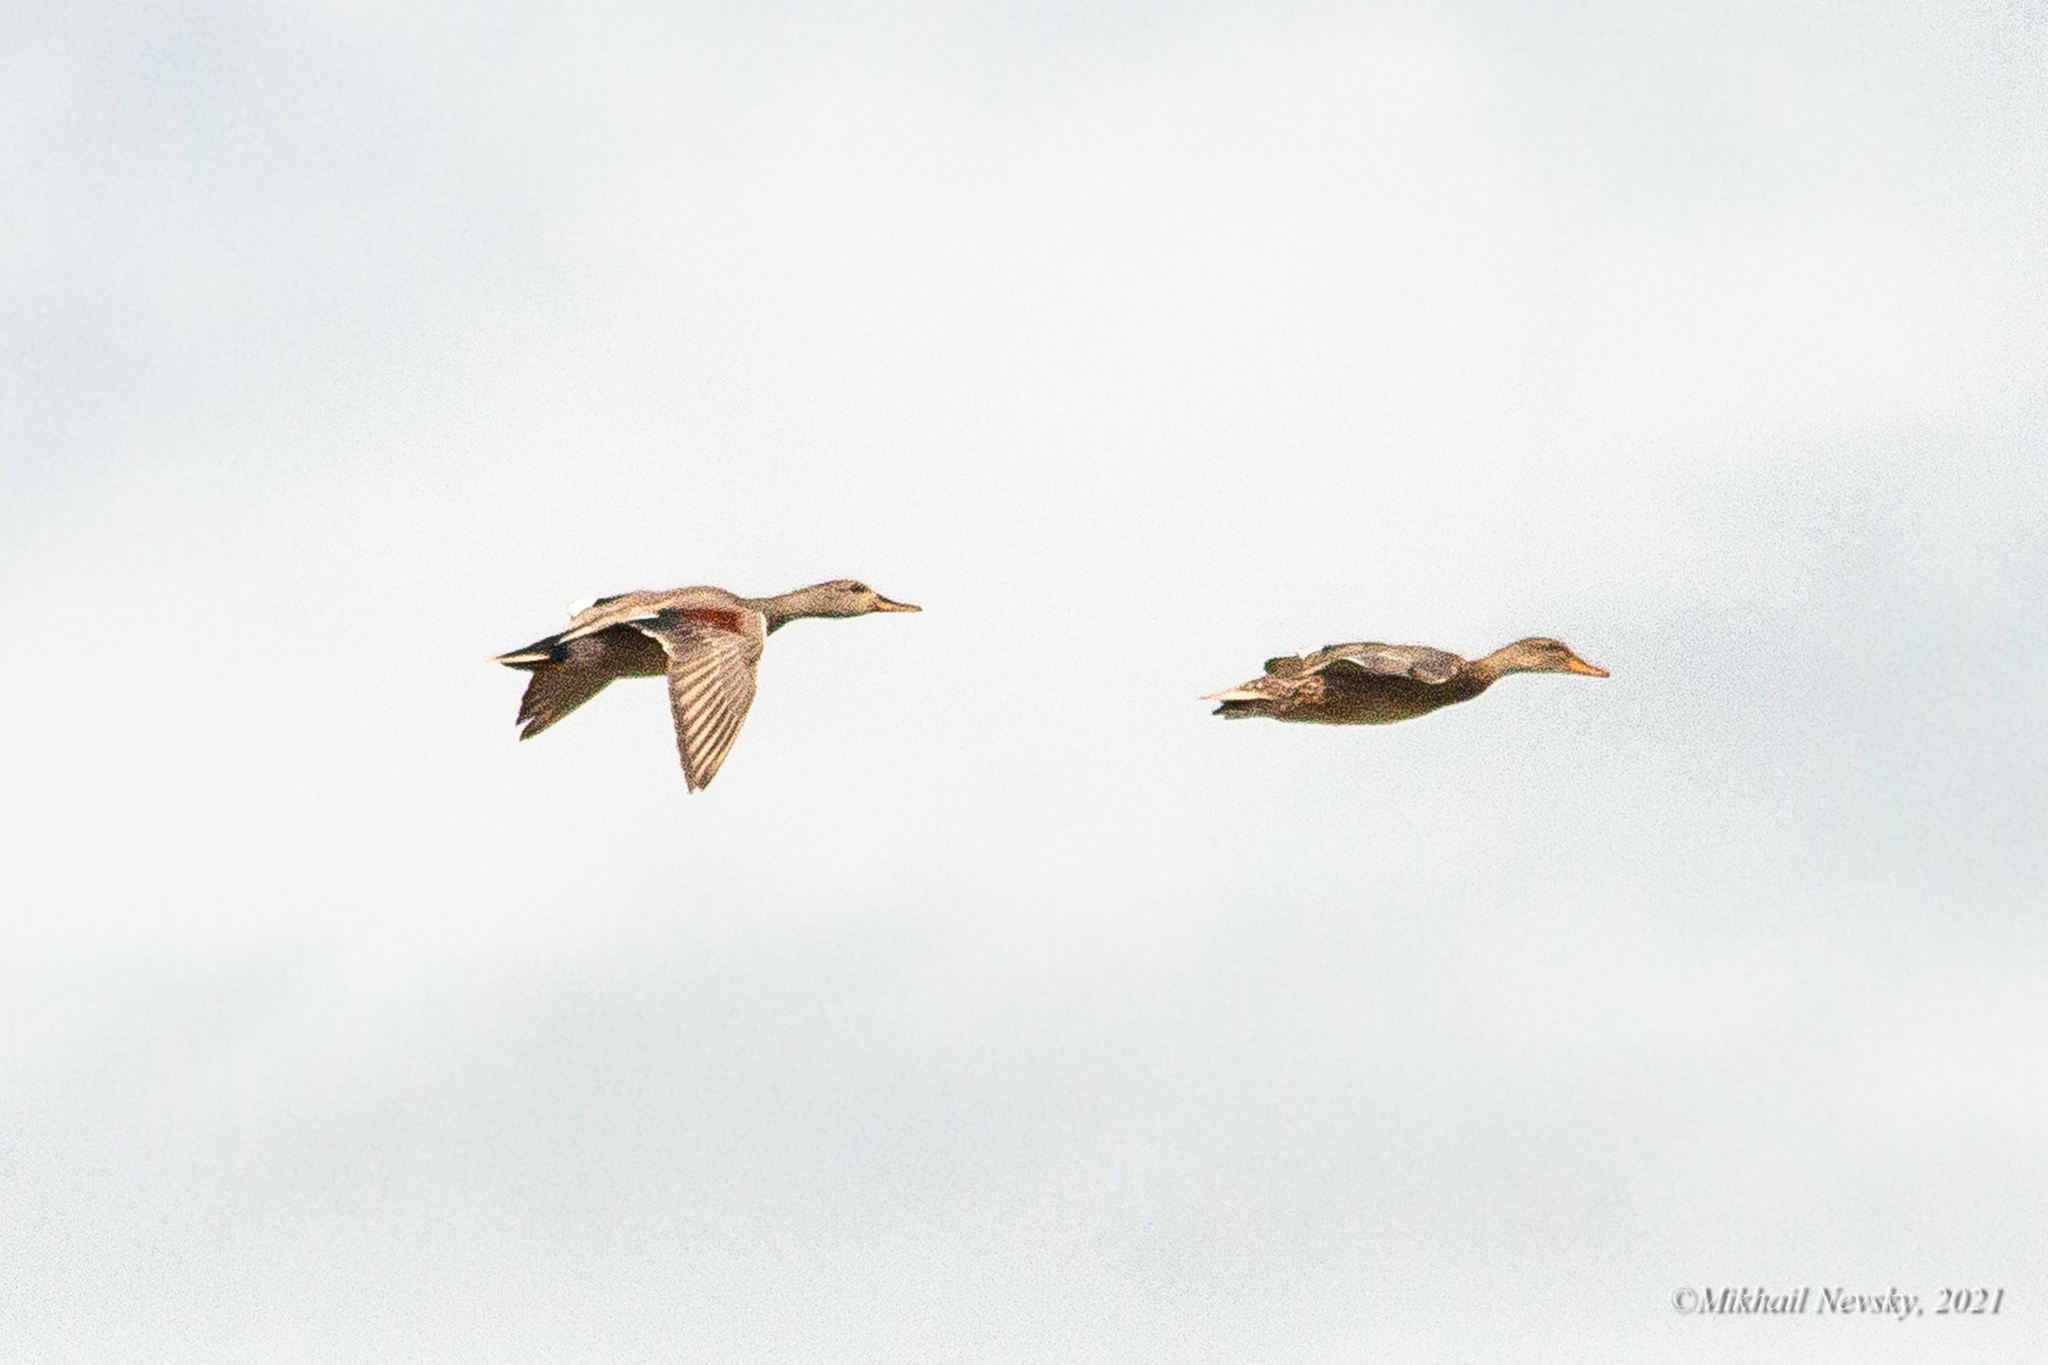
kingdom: Animalia
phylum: Chordata
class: Aves
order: Anseriformes
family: Anatidae
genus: Mareca
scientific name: Mareca strepera
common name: Gadwall
